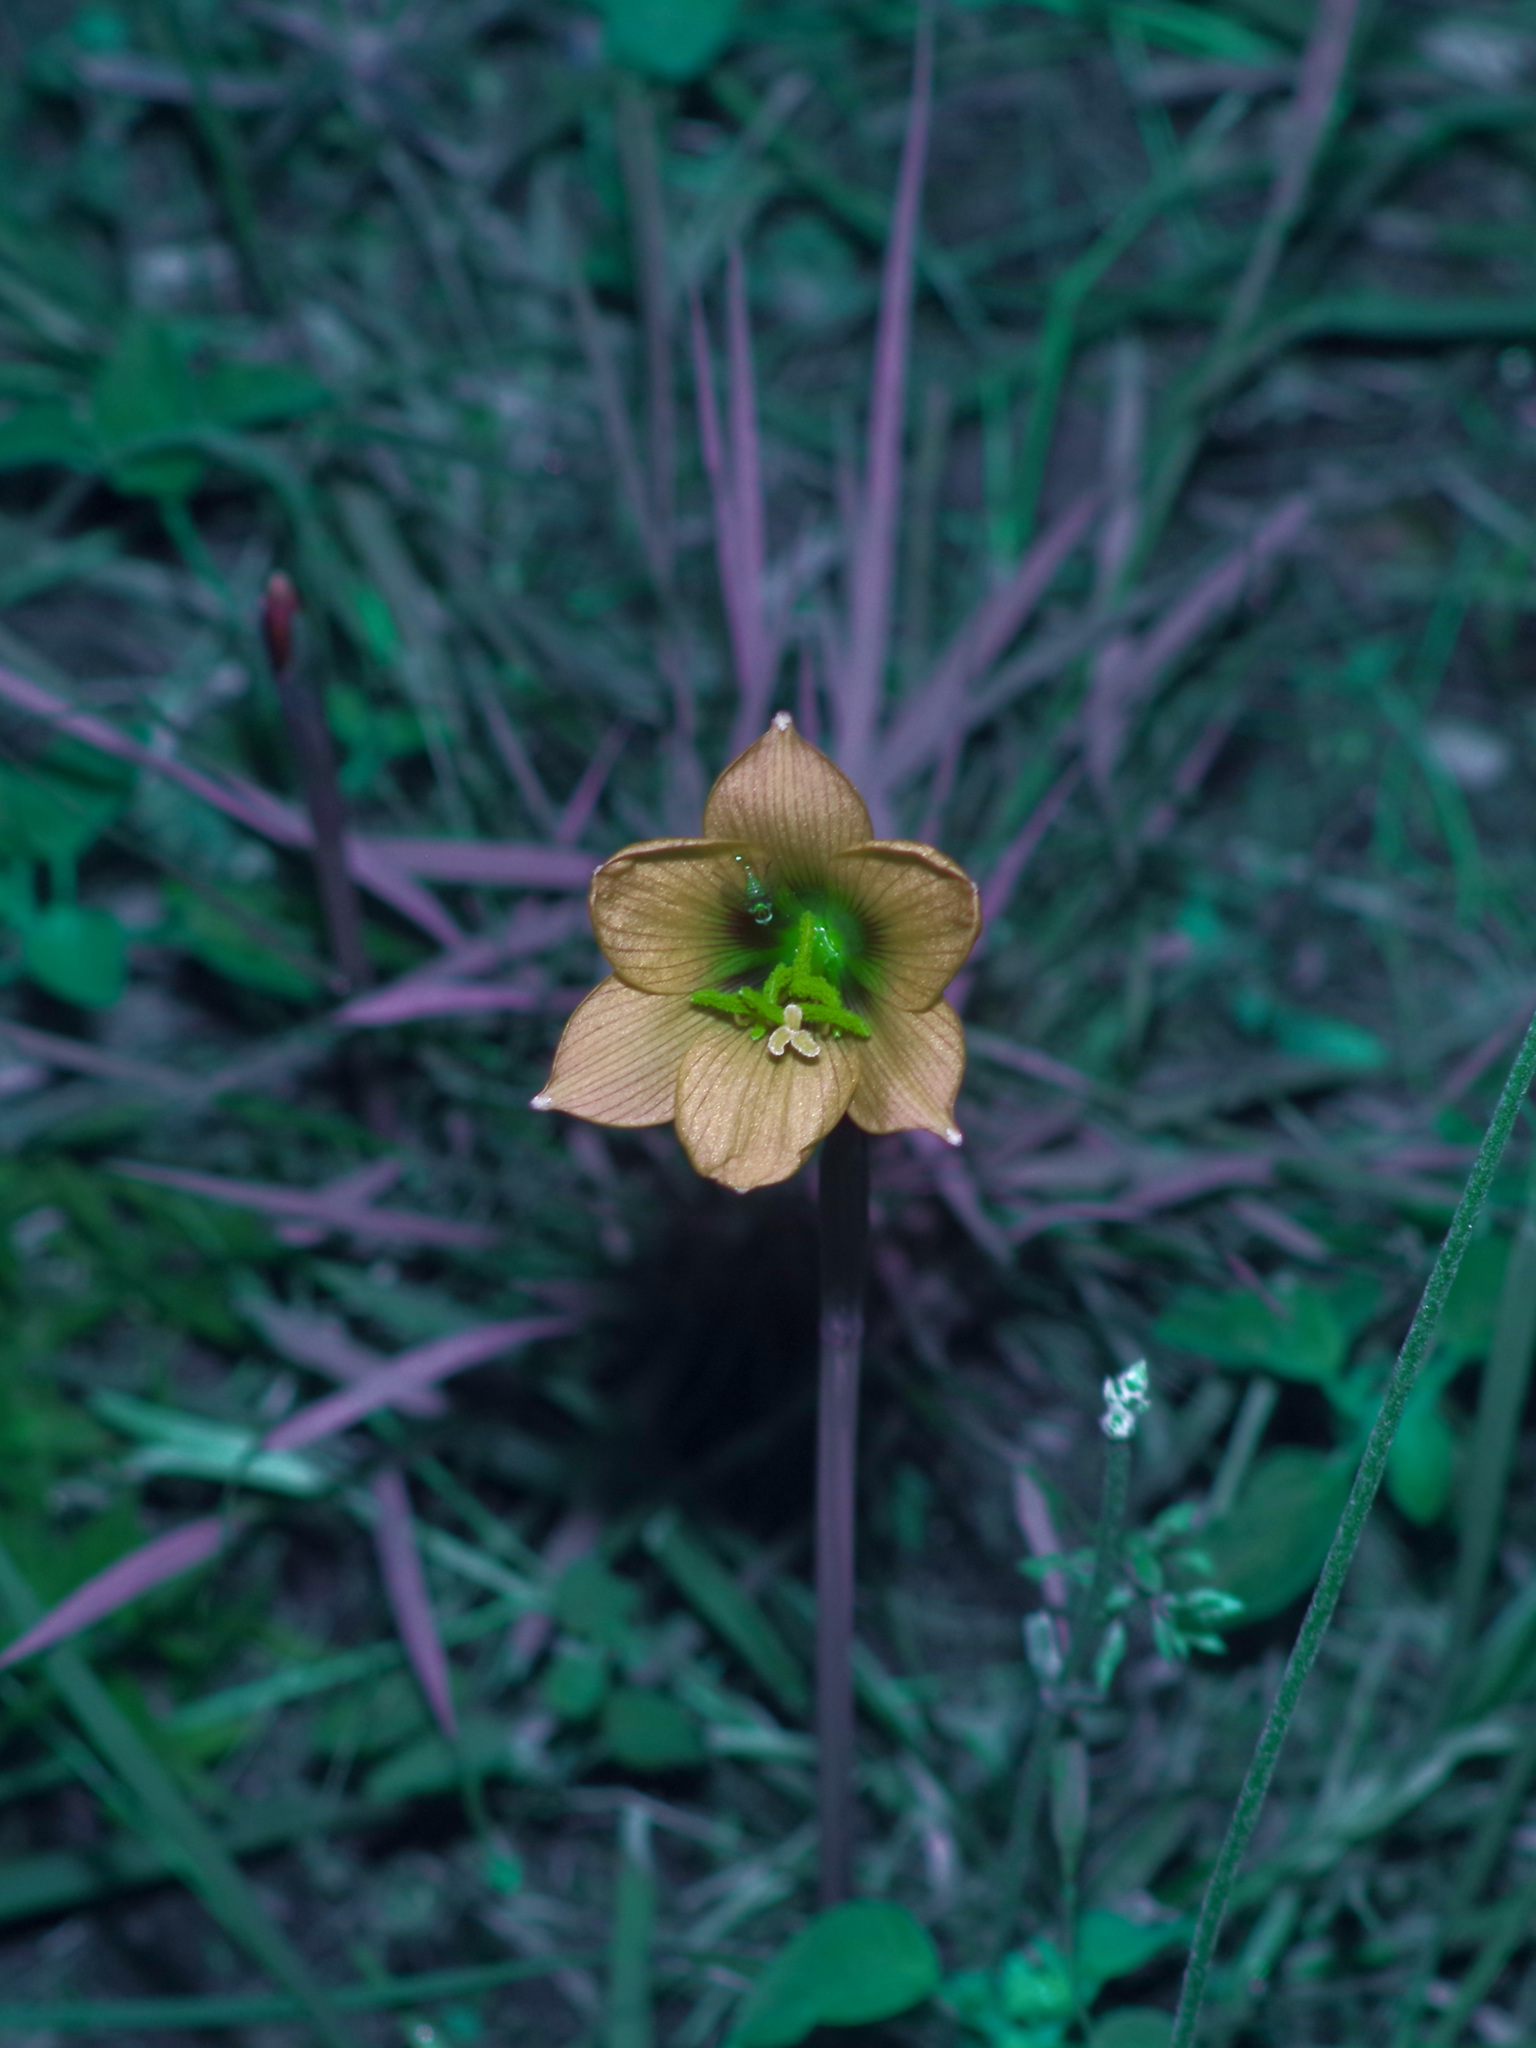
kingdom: Plantae
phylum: Tracheophyta
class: Liliopsida
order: Asparagales
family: Amaryllidaceae
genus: Zephyranthes
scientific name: Zephyranthes tubispatha
